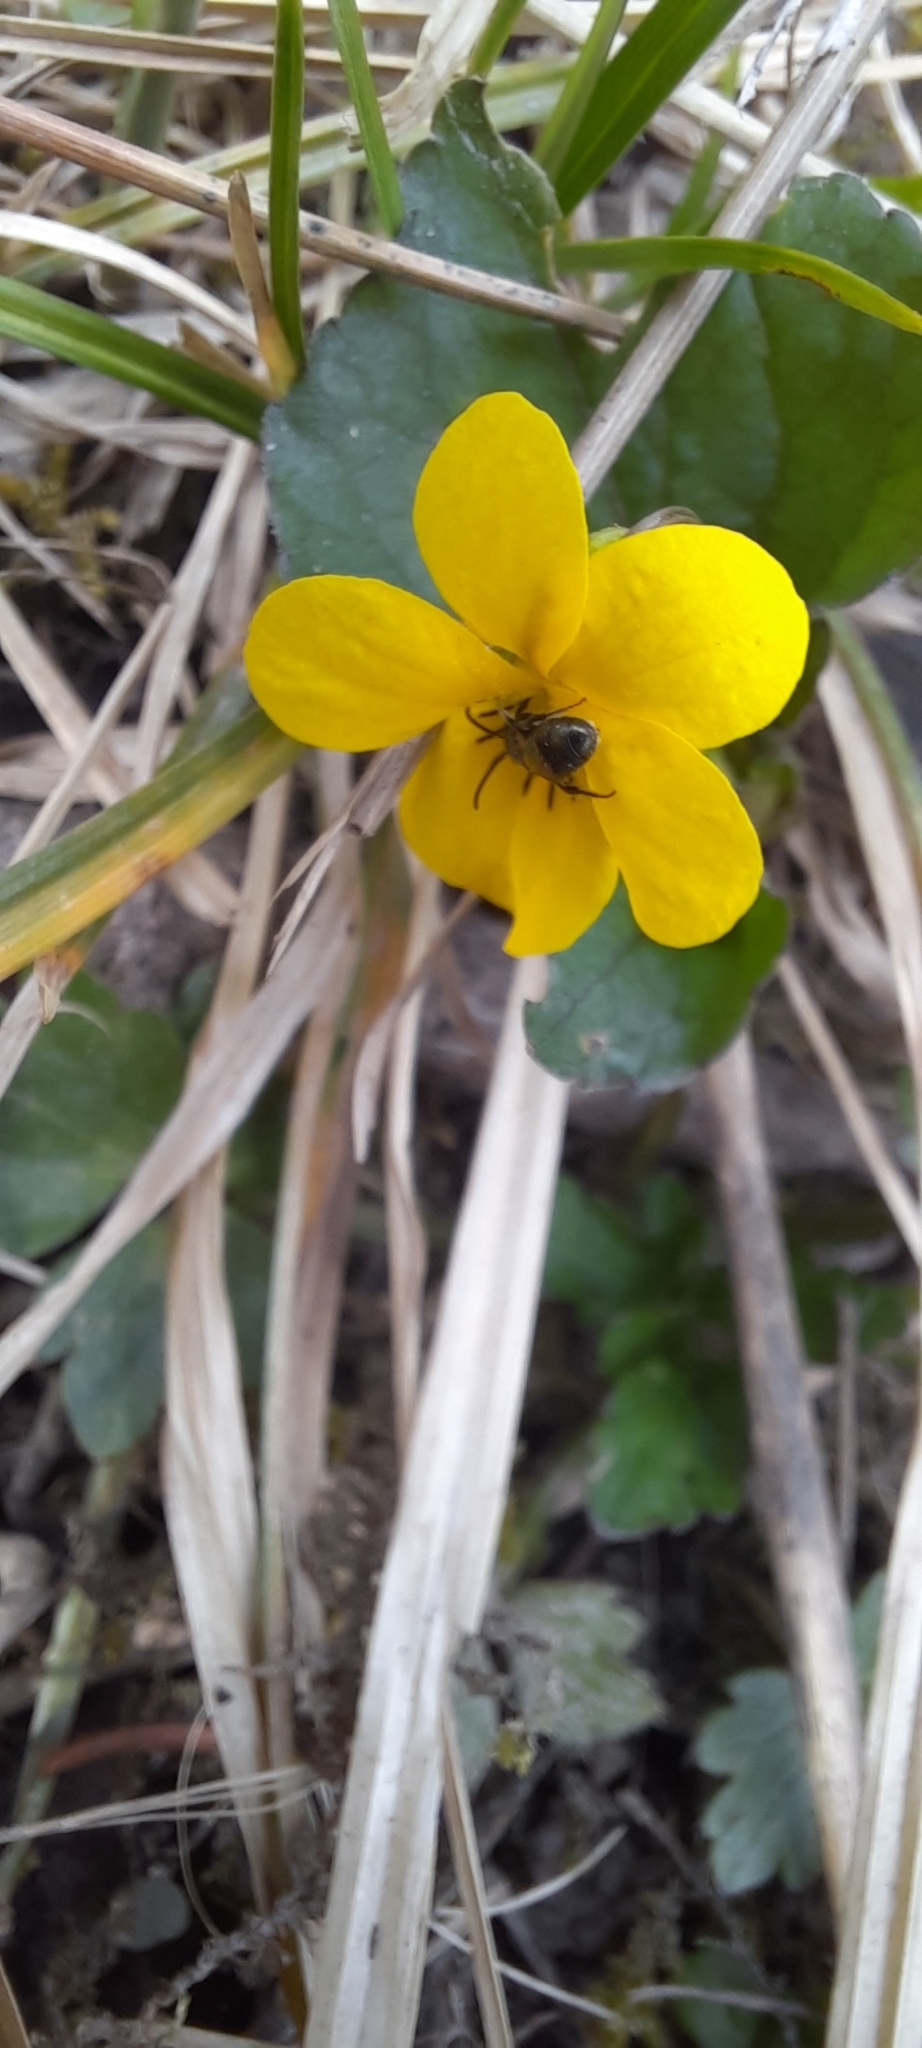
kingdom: Plantae
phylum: Tracheophyta
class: Magnoliopsida
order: Malpighiales
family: Violaceae
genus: Viola
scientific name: Viola orbiculata
